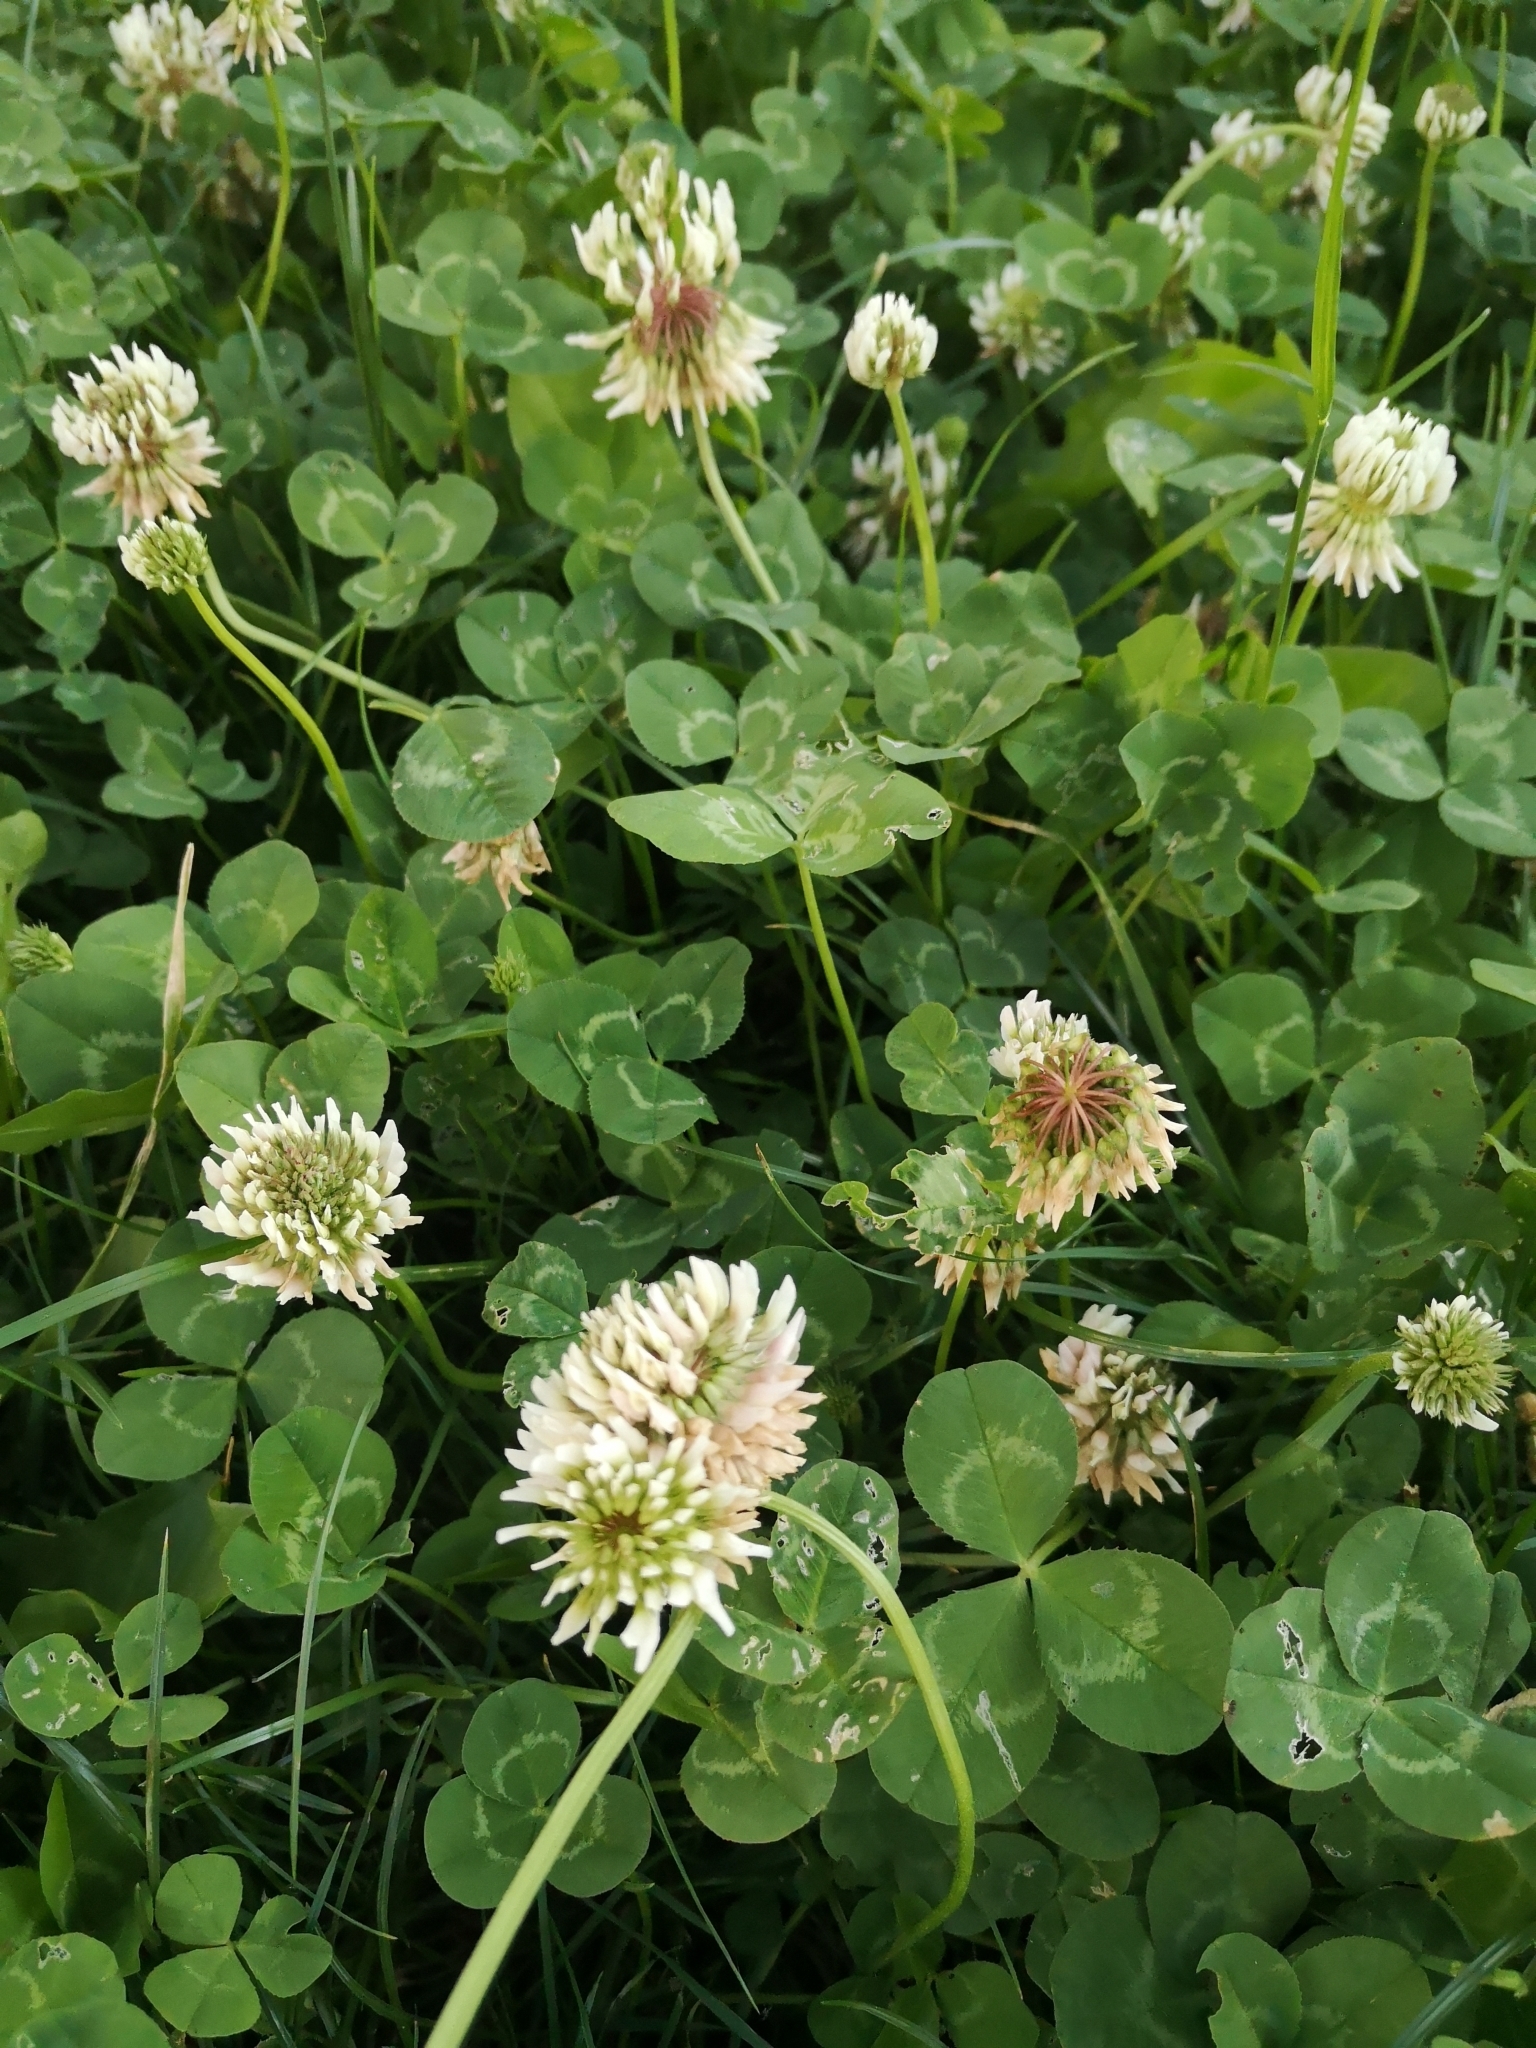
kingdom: Plantae
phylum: Tracheophyta
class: Magnoliopsida
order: Fabales
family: Fabaceae
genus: Trifolium
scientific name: Trifolium repens
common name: White clover
